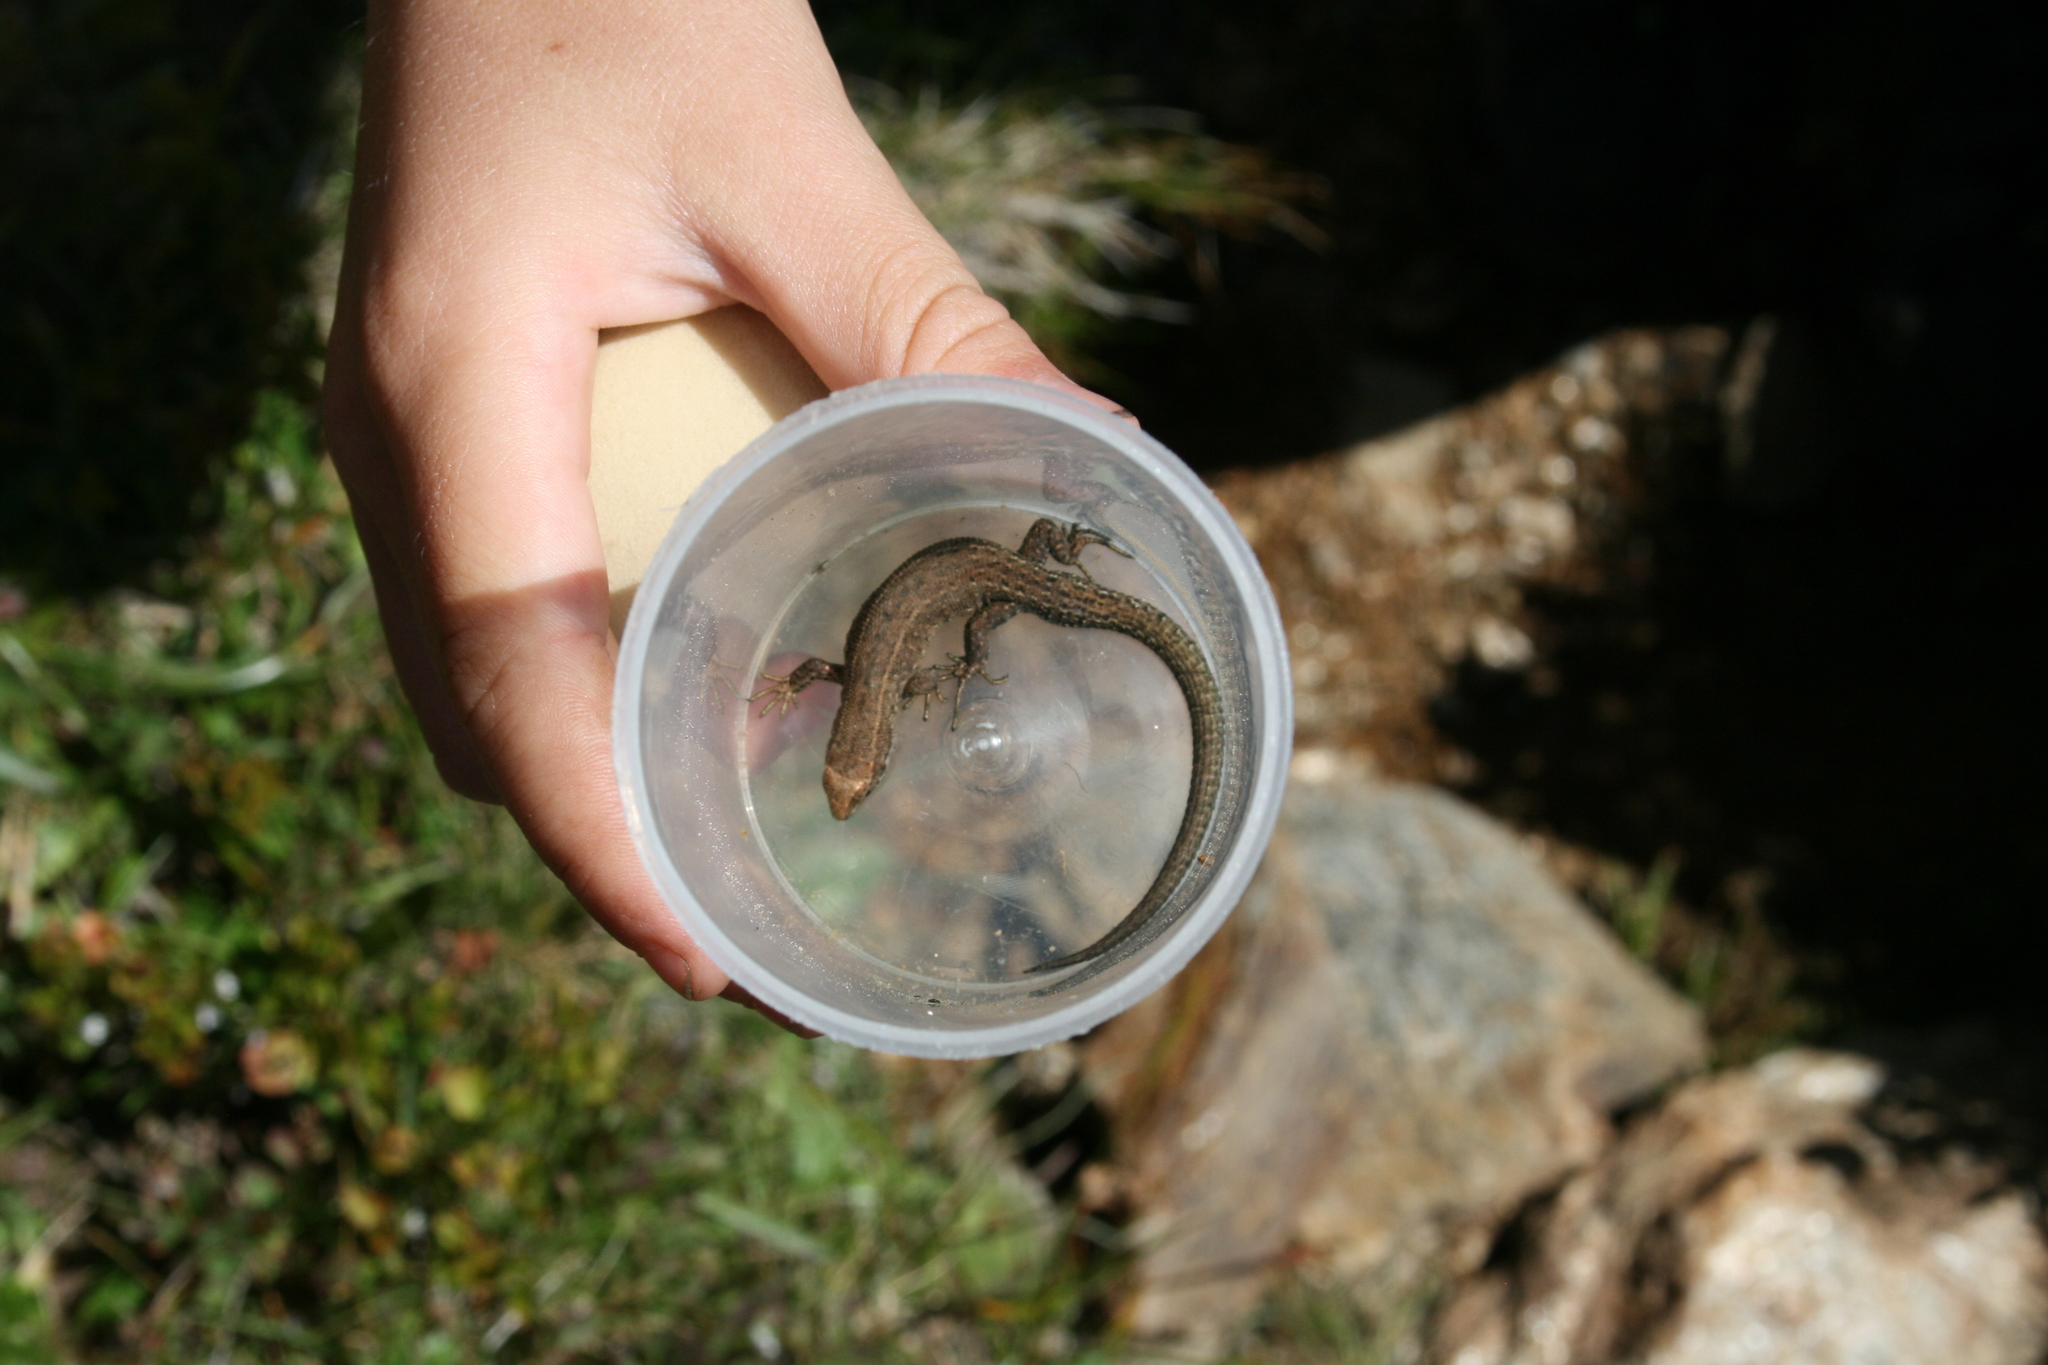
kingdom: Animalia
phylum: Chordata
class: Squamata
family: Lacertidae
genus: Zootoca
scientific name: Zootoca vivipara
